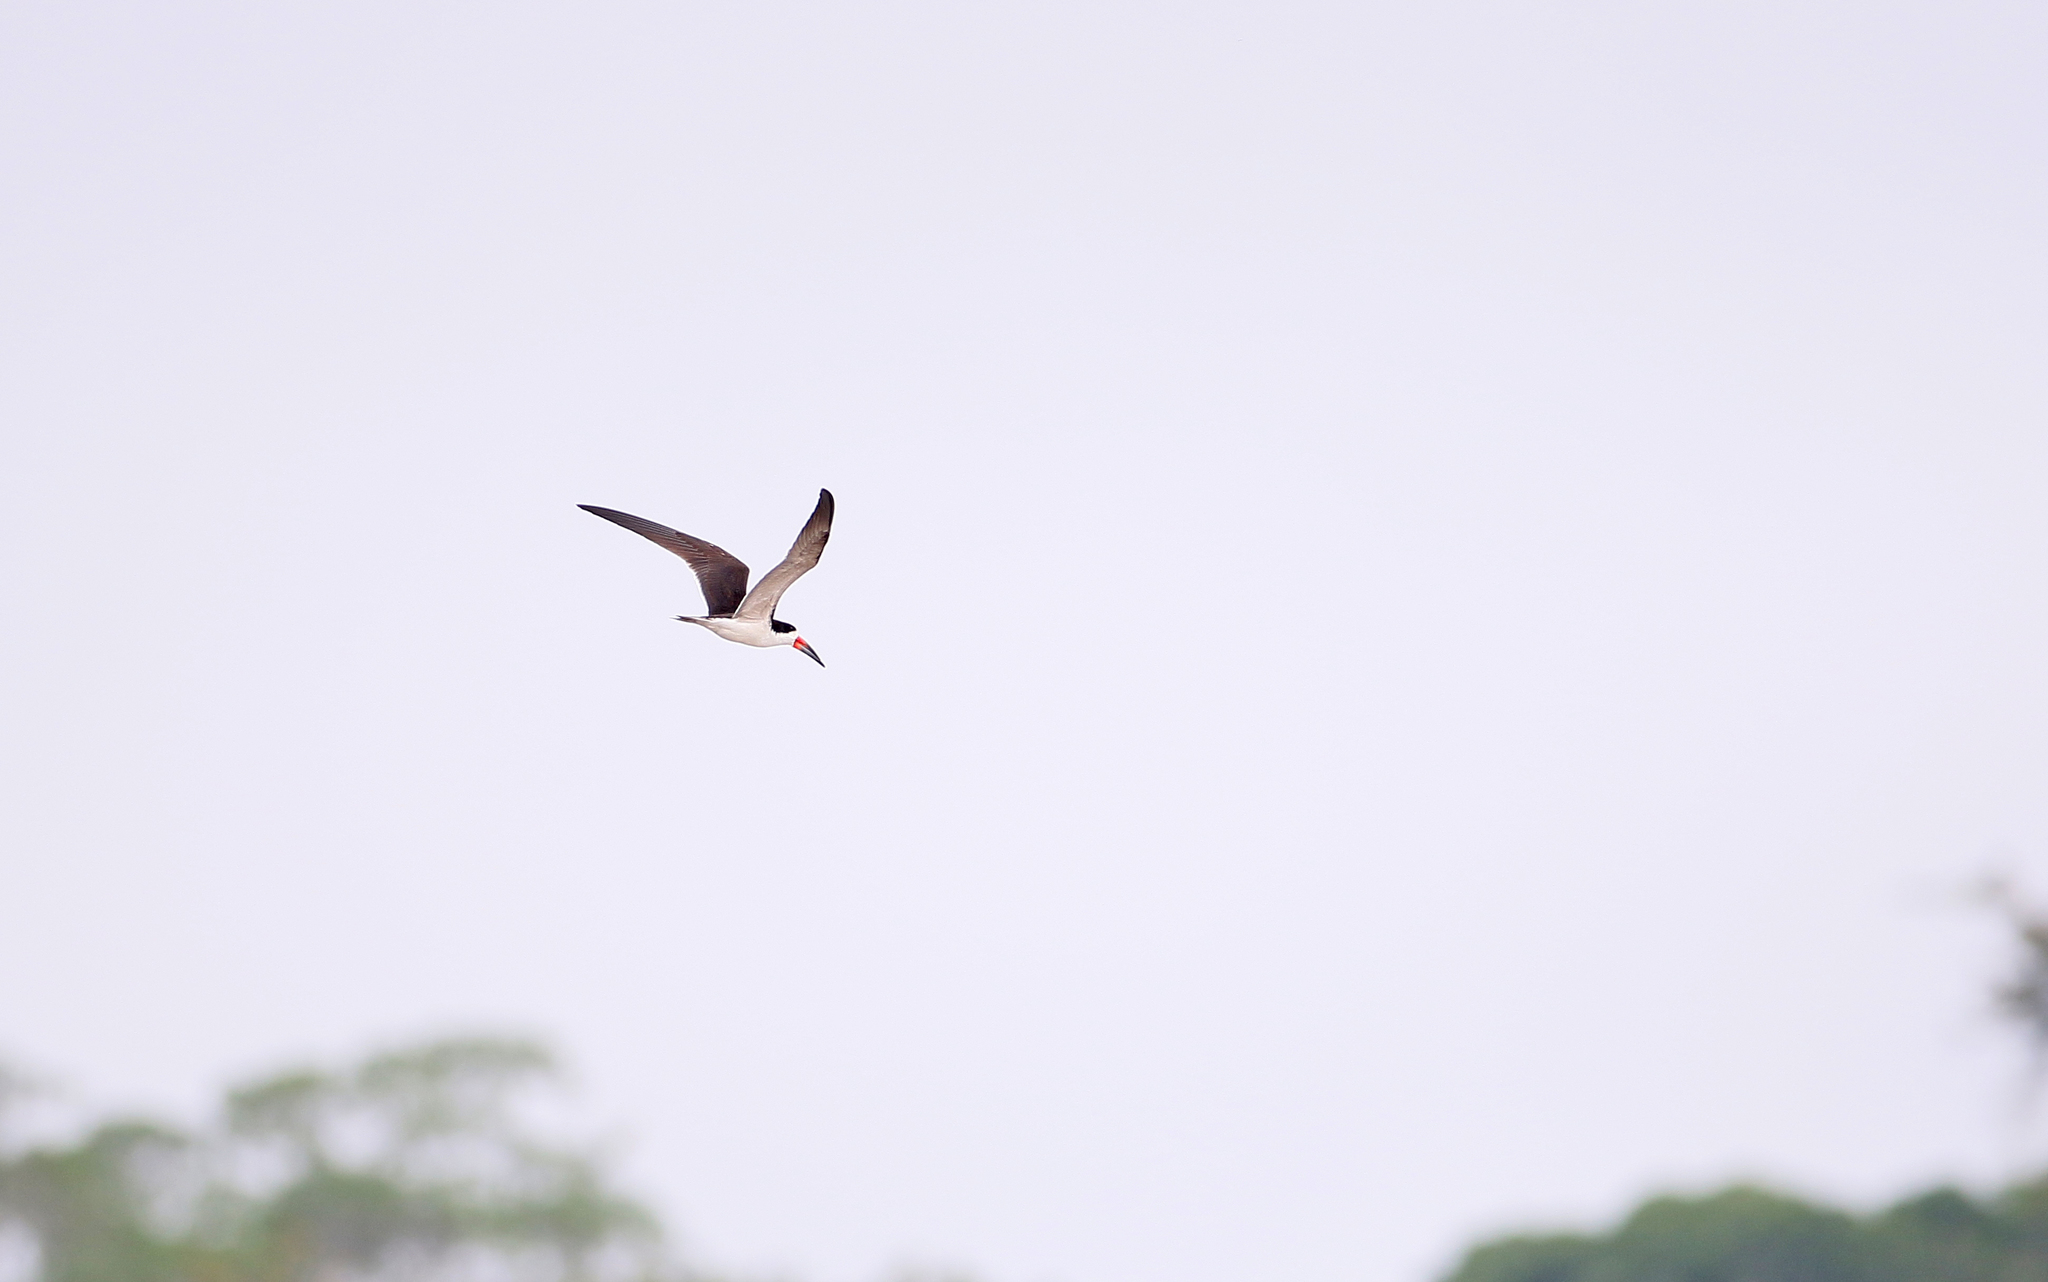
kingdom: Animalia
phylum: Chordata
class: Aves
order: Charadriiformes
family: Laridae
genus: Rynchops
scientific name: Rynchops niger
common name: Black skimmer
